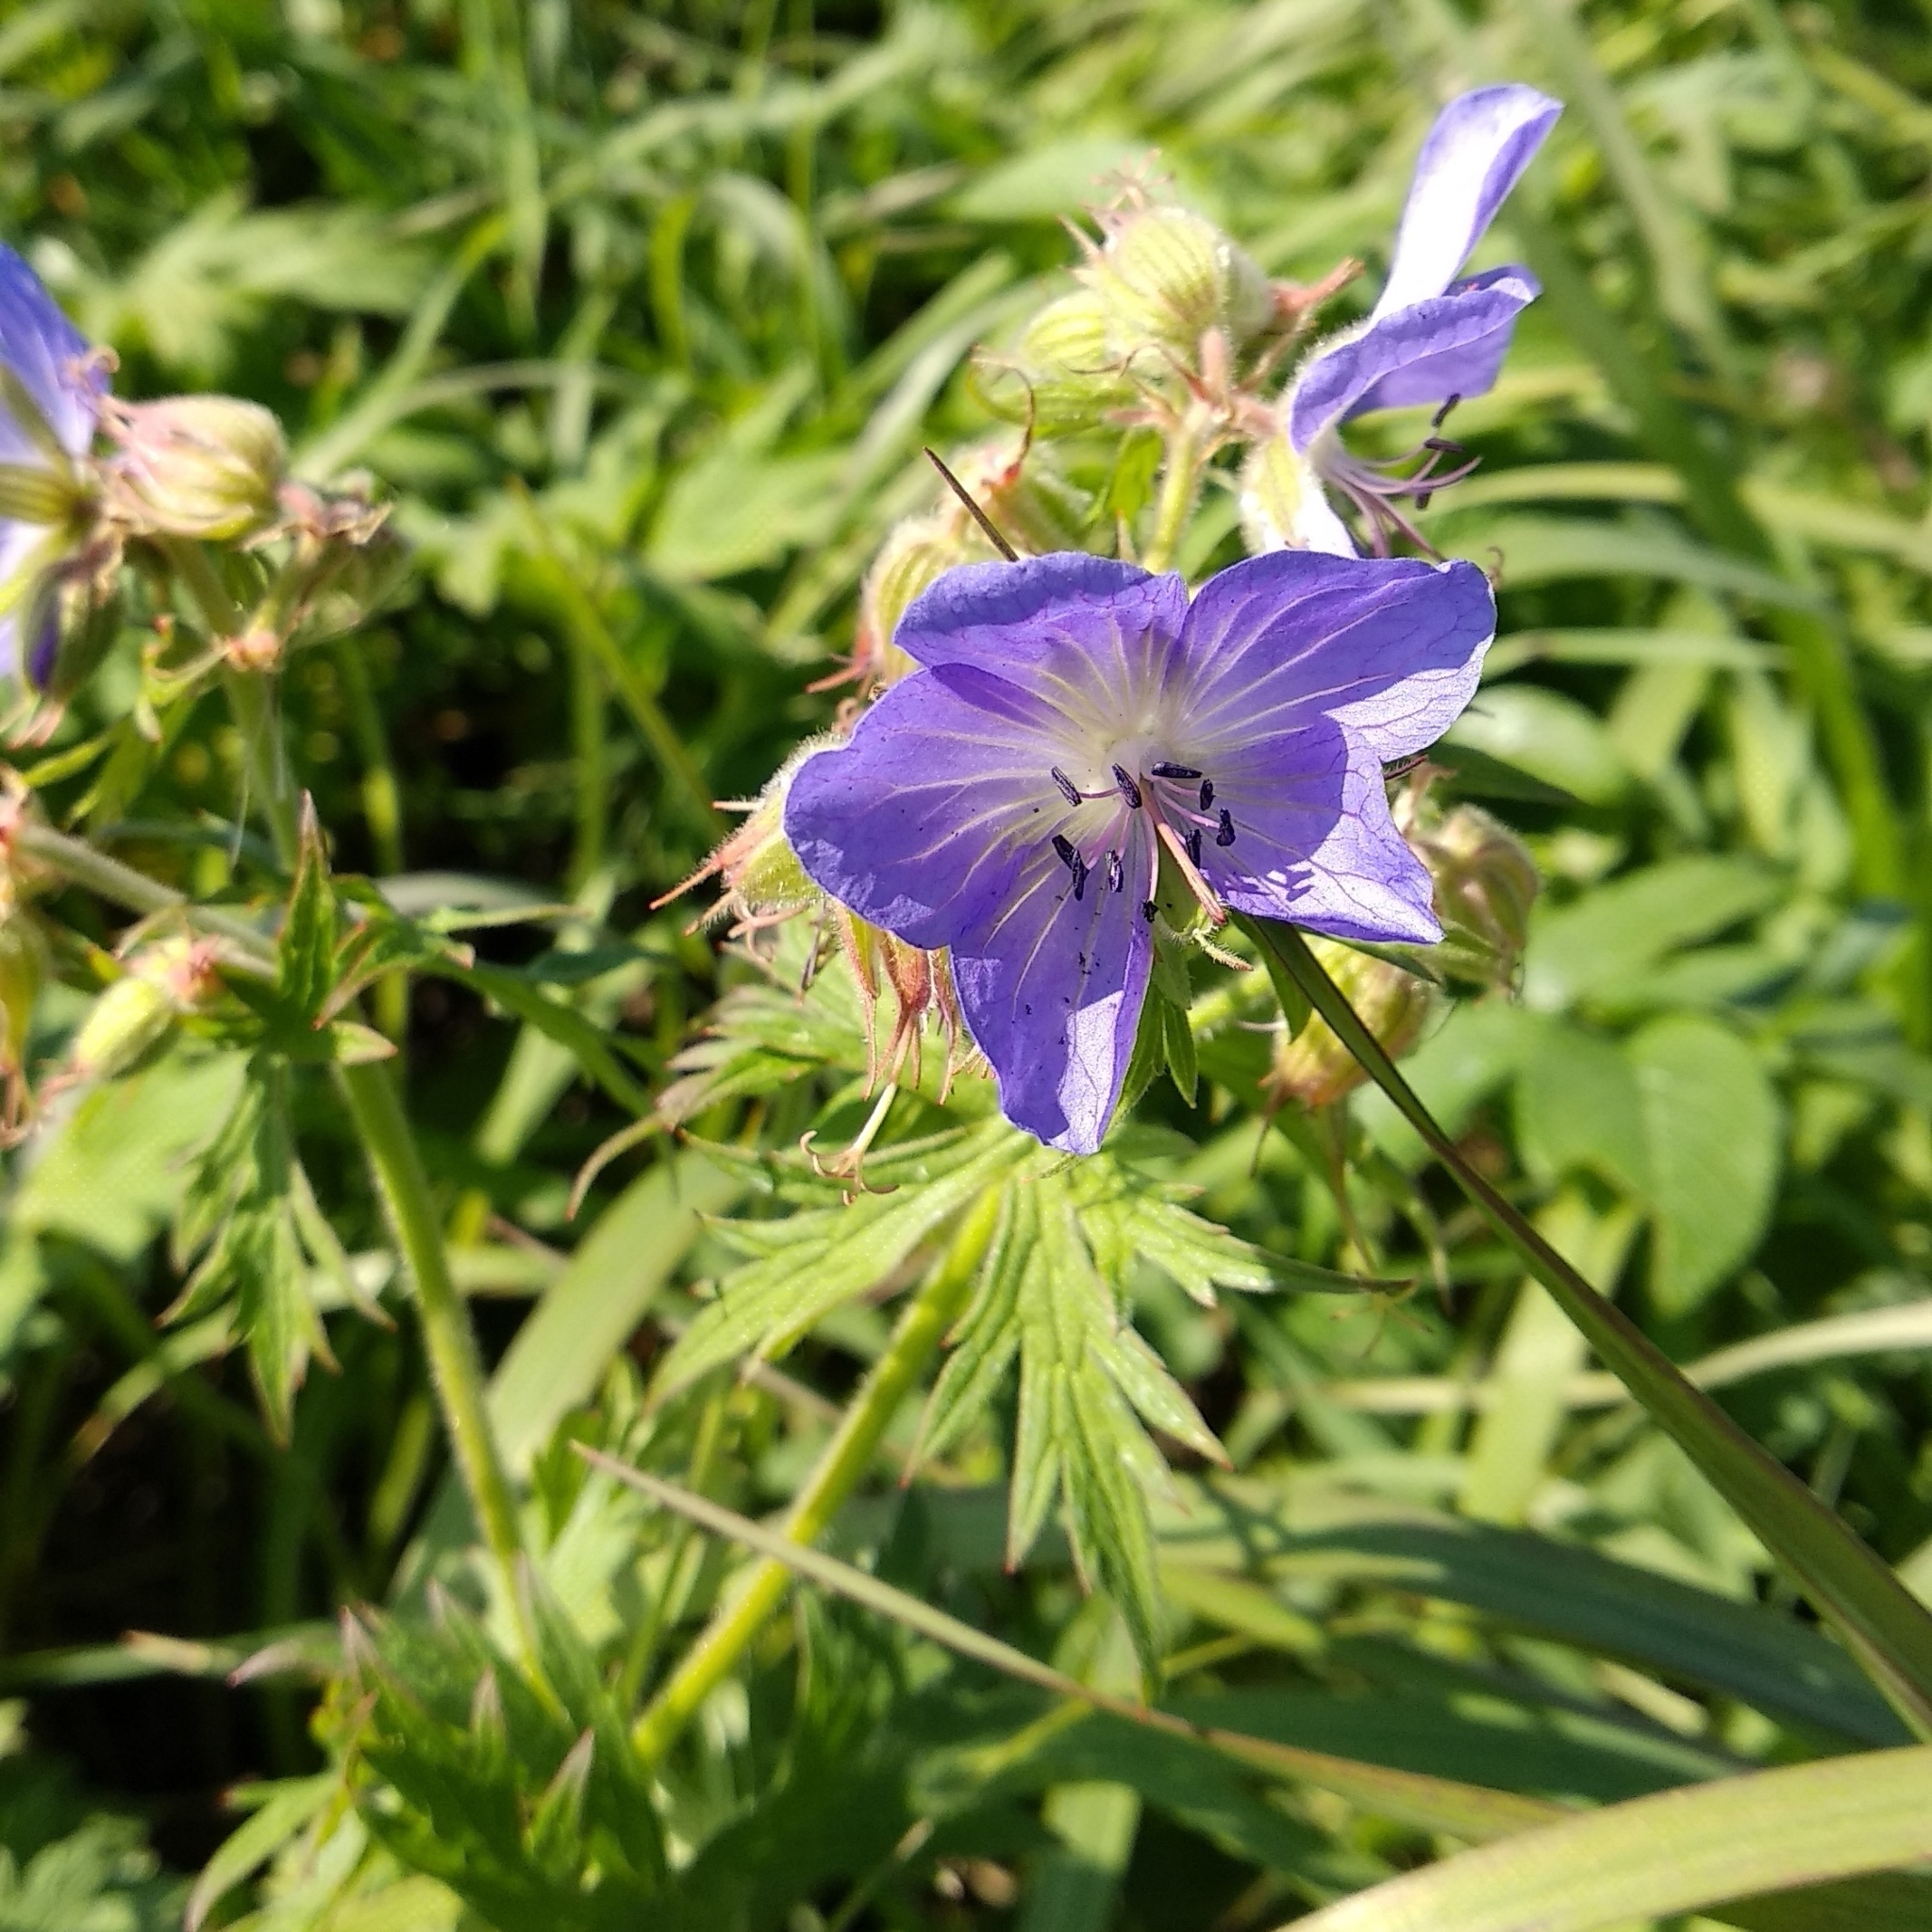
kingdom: Plantae
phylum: Tracheophyta
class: Magnoliopsida
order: Geraniales
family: Geraniaceae
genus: Geranium
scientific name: Geranium pratense
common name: Meadow crane's-bill
